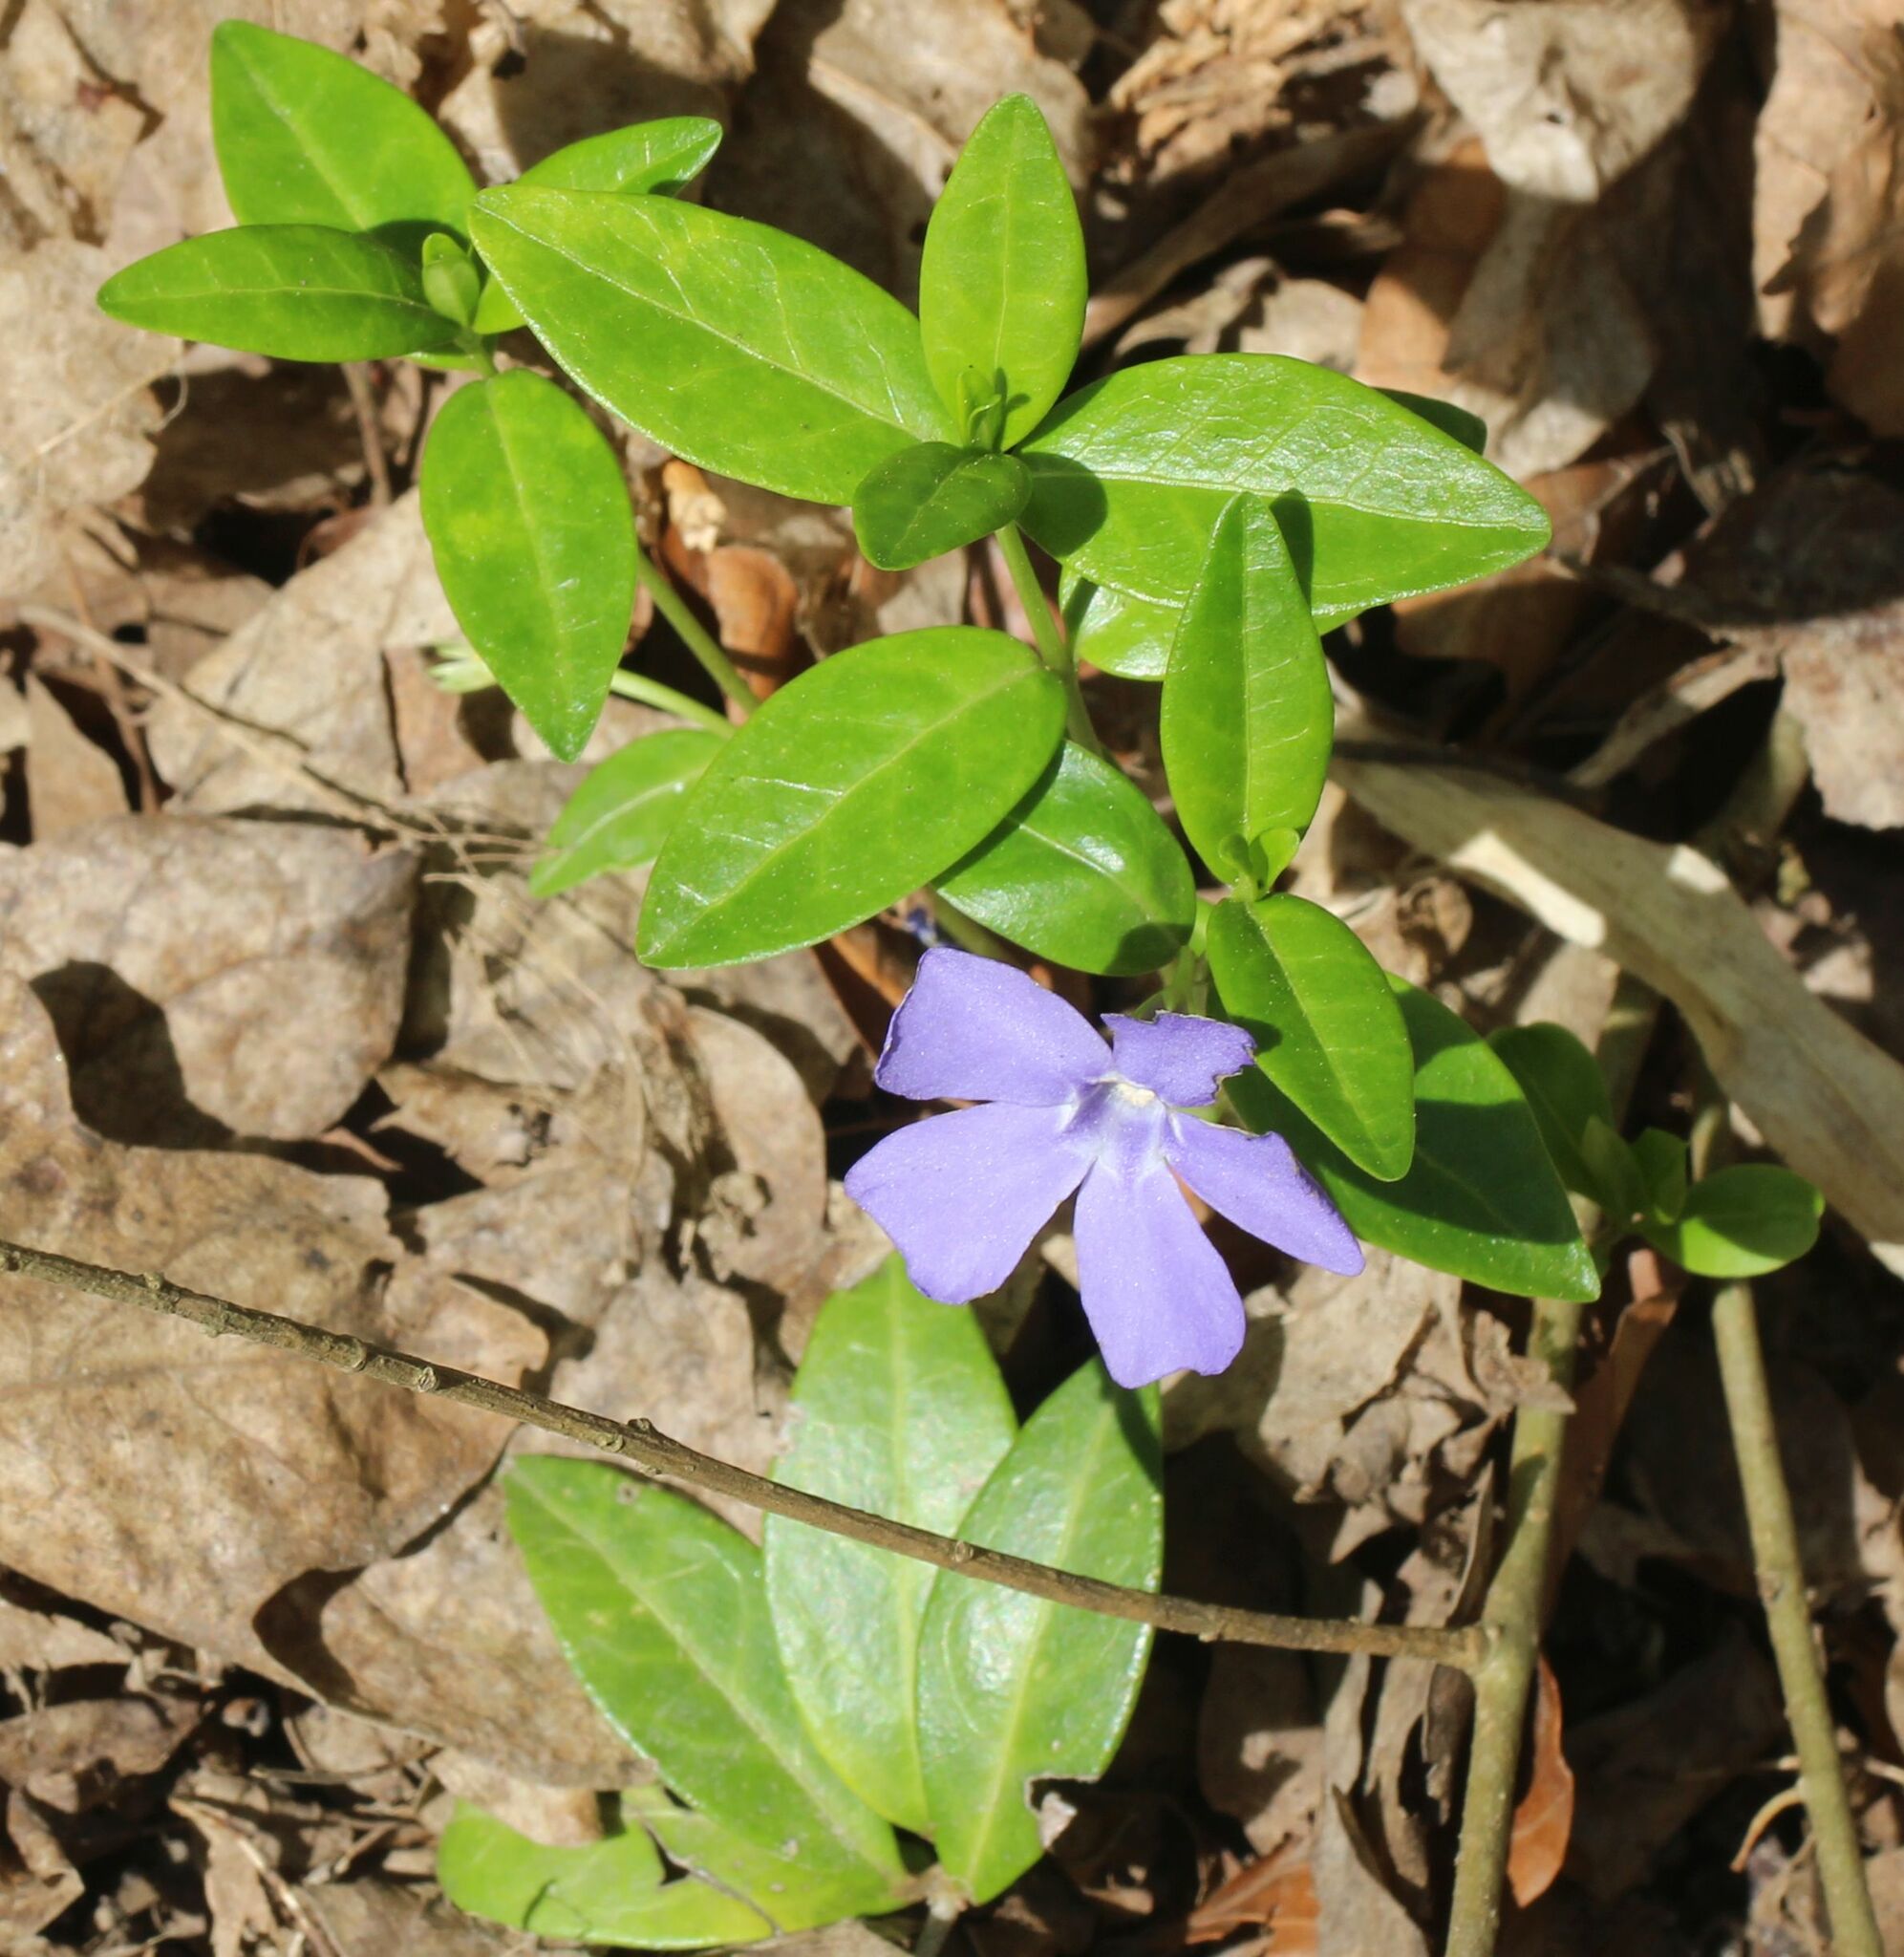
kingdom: Plantae
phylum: Tracheophyta
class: Magnoliopsida
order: Gentianales
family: Apocynaceae
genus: Vinca
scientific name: Vinca minor
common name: Lesser periwinkle
